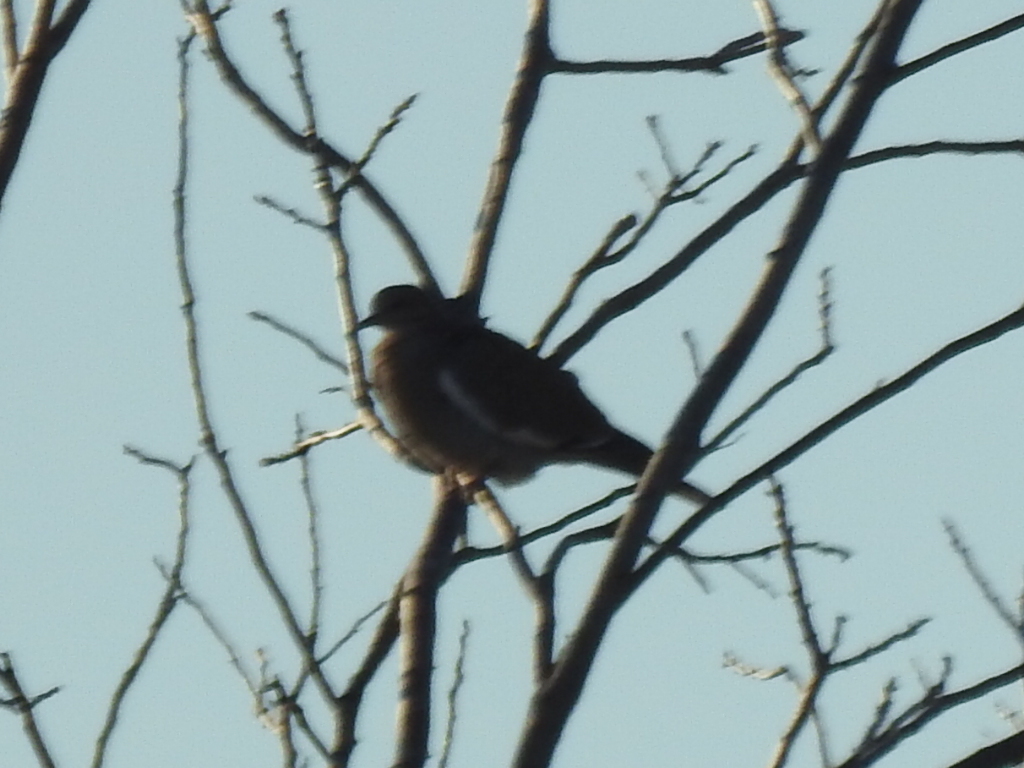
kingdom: Animalia
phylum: Chordata
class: Aves
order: Columbiformes
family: Columbidae
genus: Zenaida
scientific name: Zenaida asiatica
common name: White-winged dove
